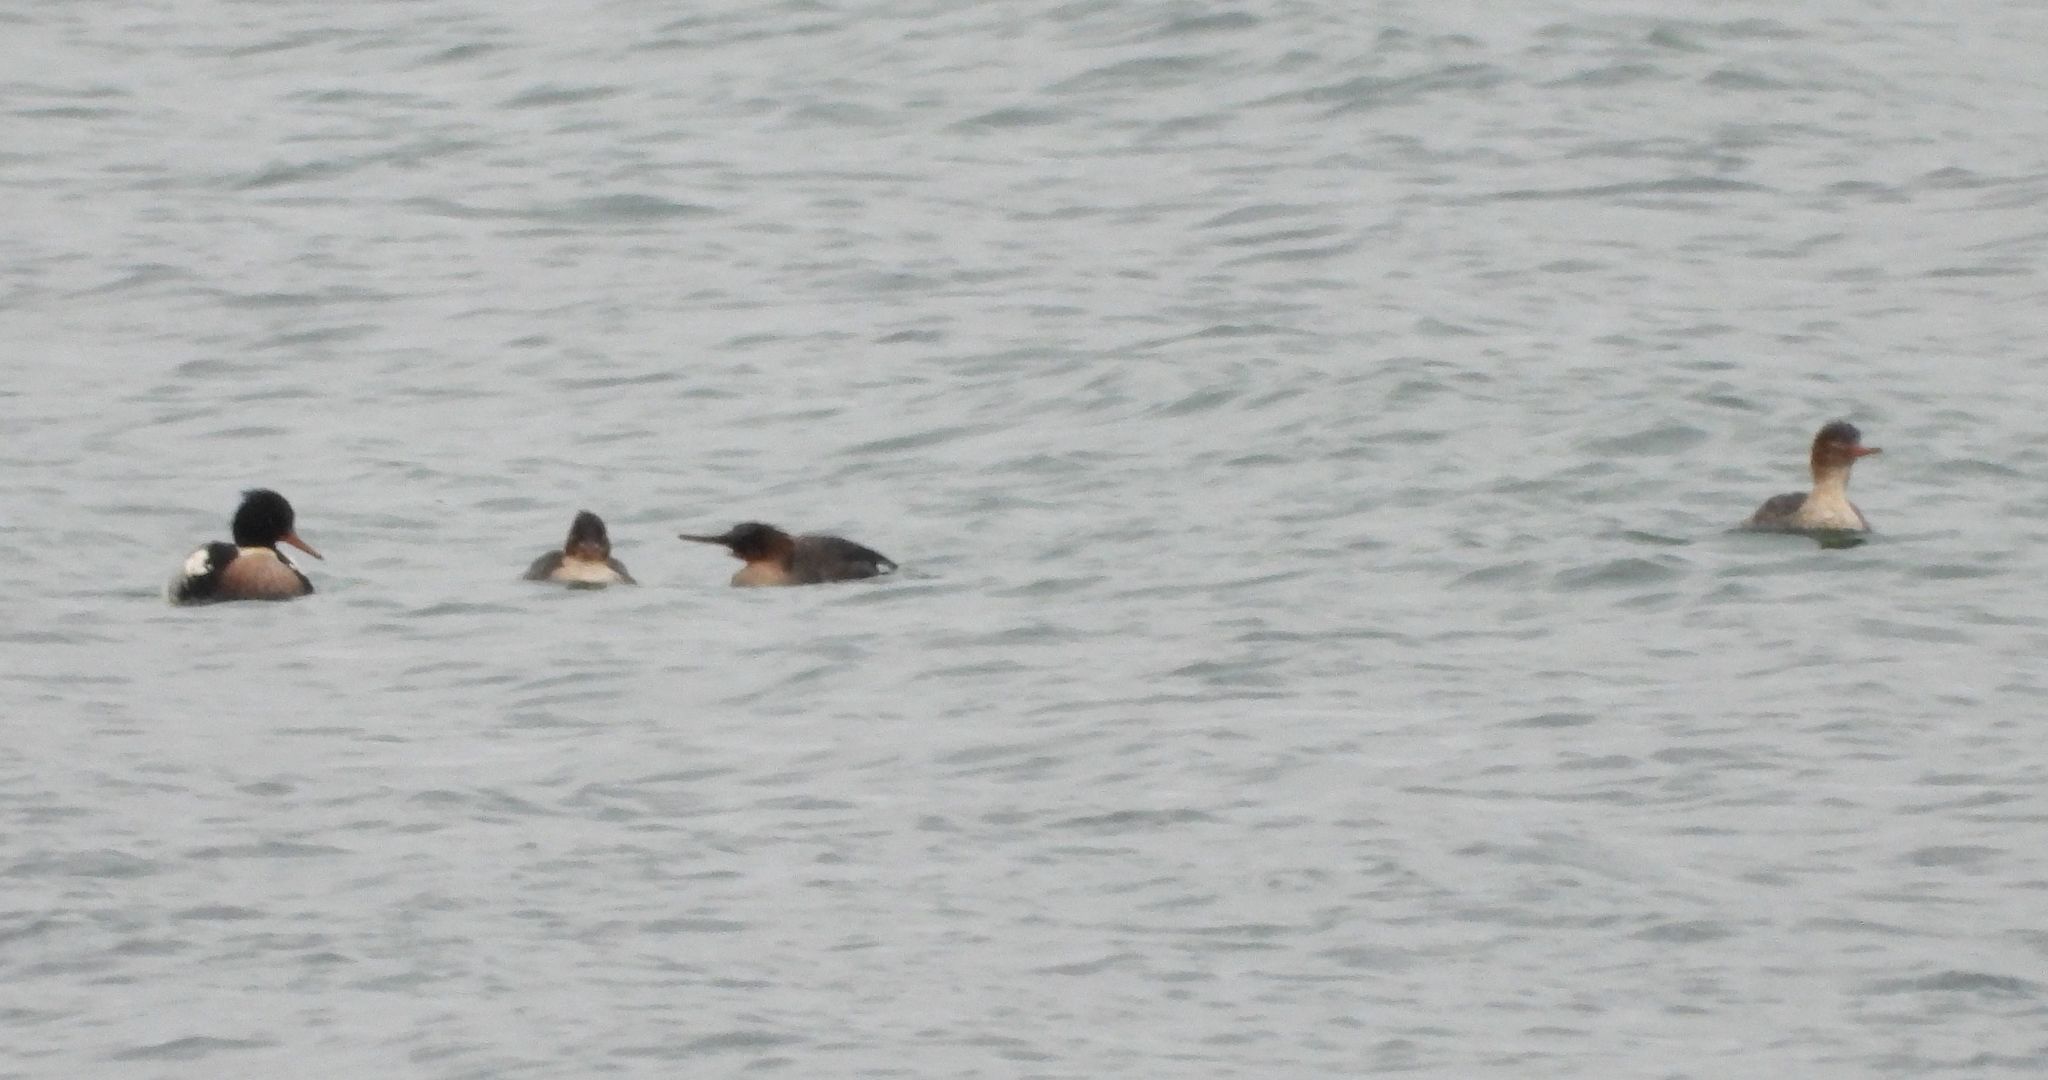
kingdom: Animalia
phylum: Chordata
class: Aves
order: Anseriformes
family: Anatidae
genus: Mergus
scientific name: Mergus serrator
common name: Red-breasted merganser
